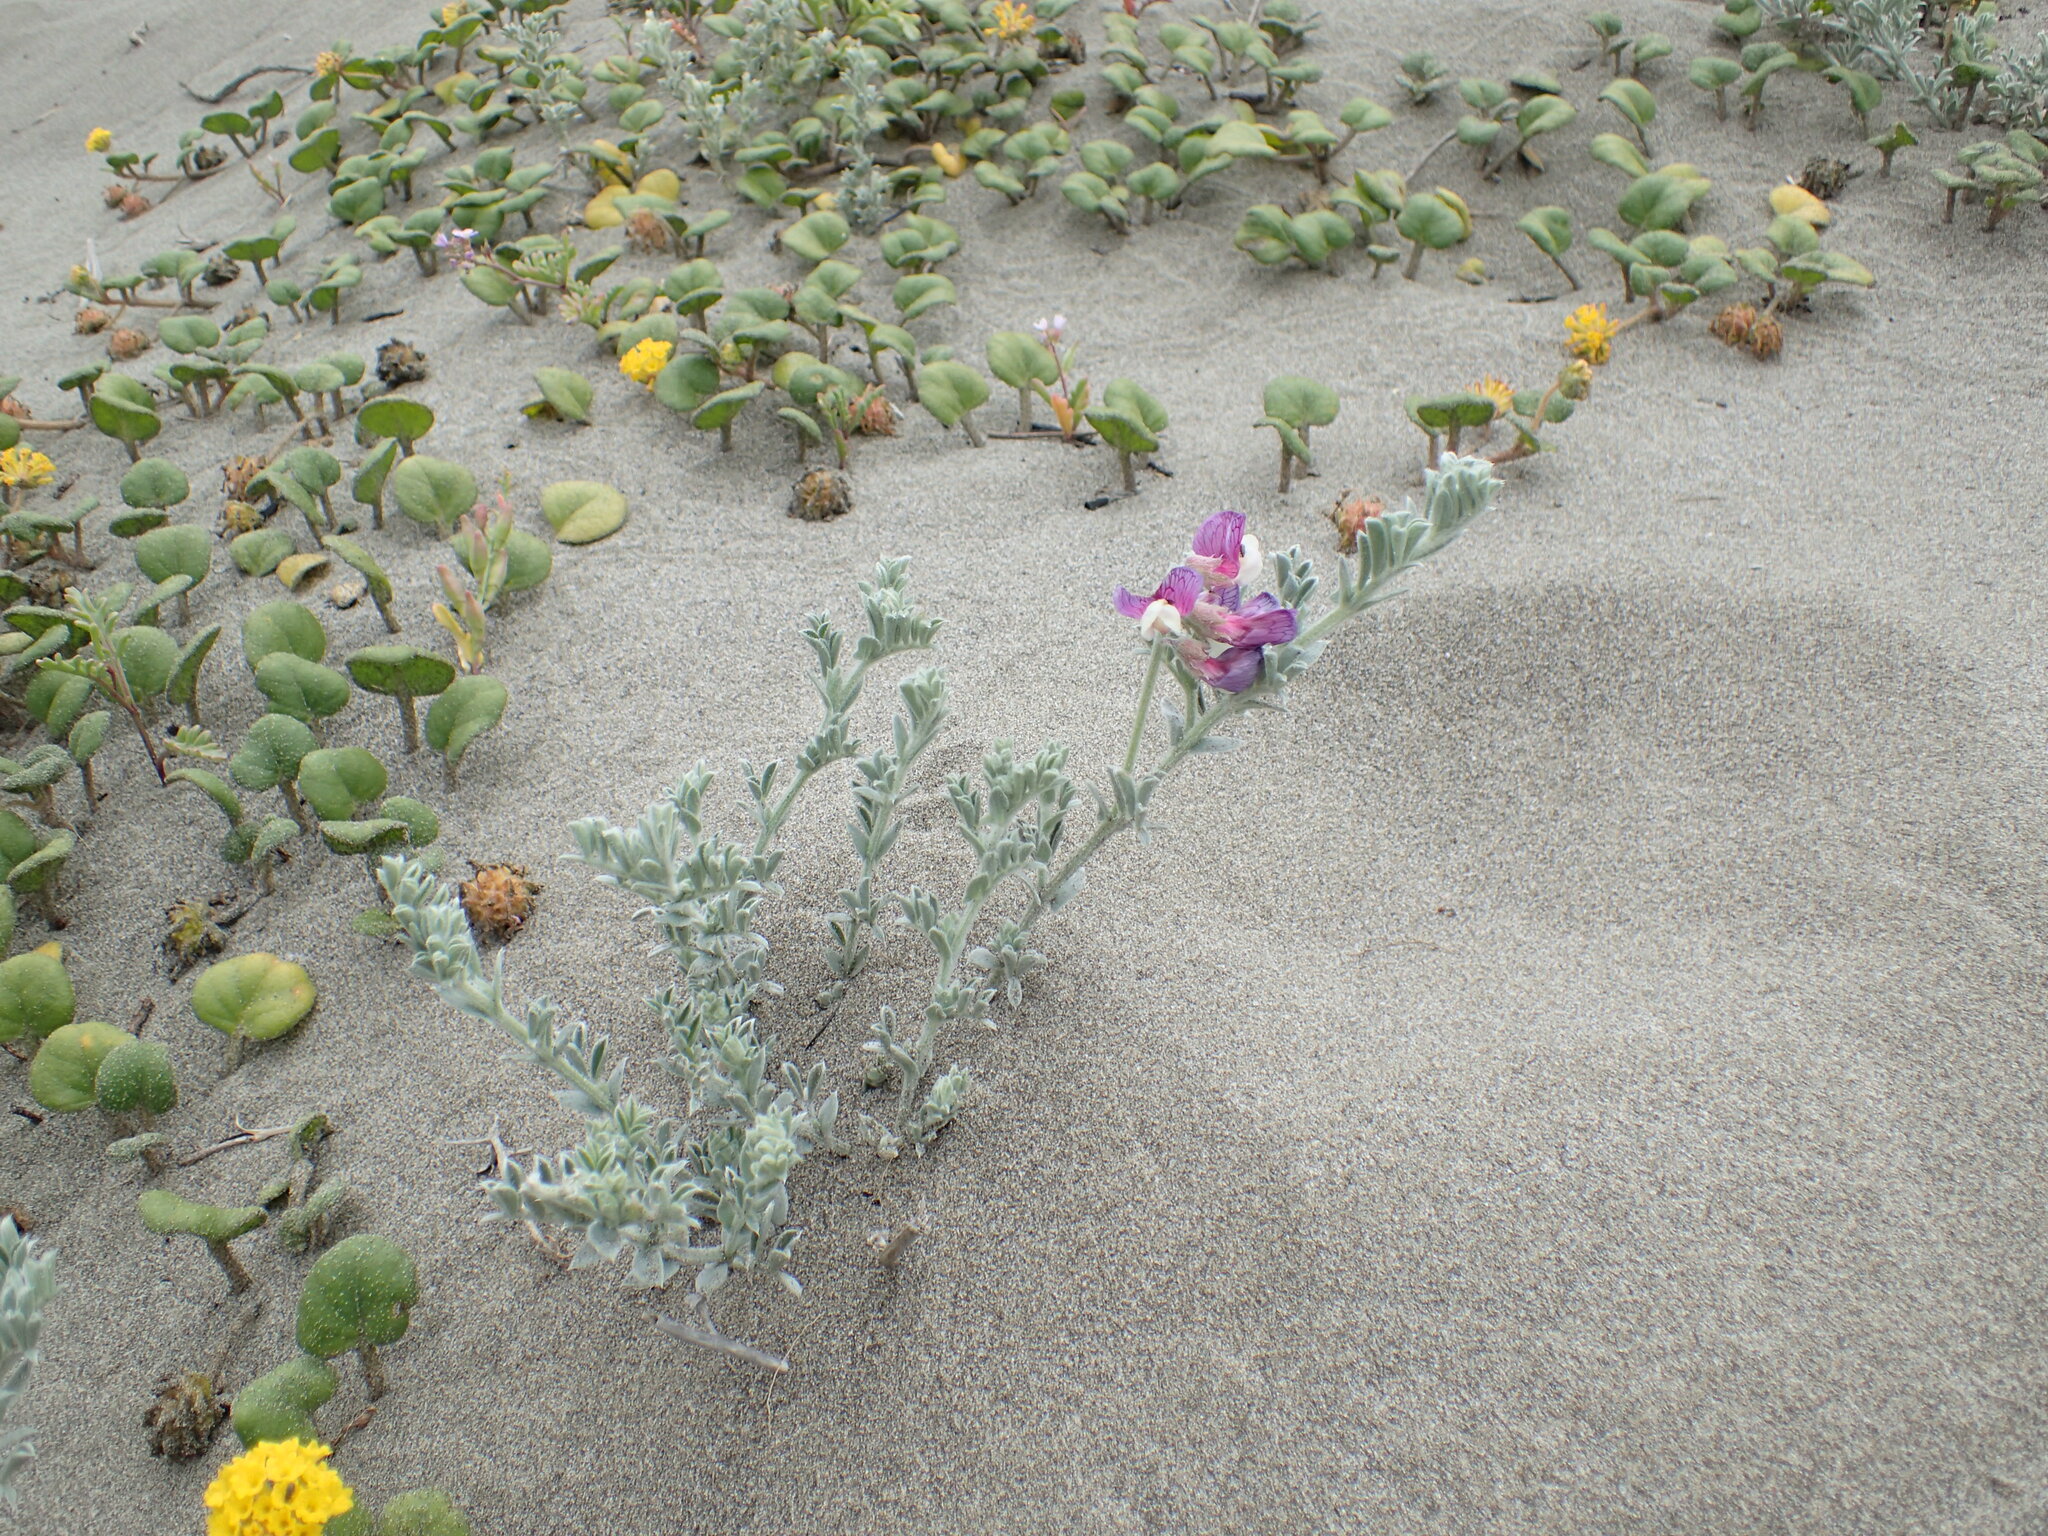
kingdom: Plantae
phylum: Tracheophyta
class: Magnoliopsida
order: Fabales
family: Fabaceae
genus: Lathyrus
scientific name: Lathyrus littoralis
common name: Dune sweet pea
